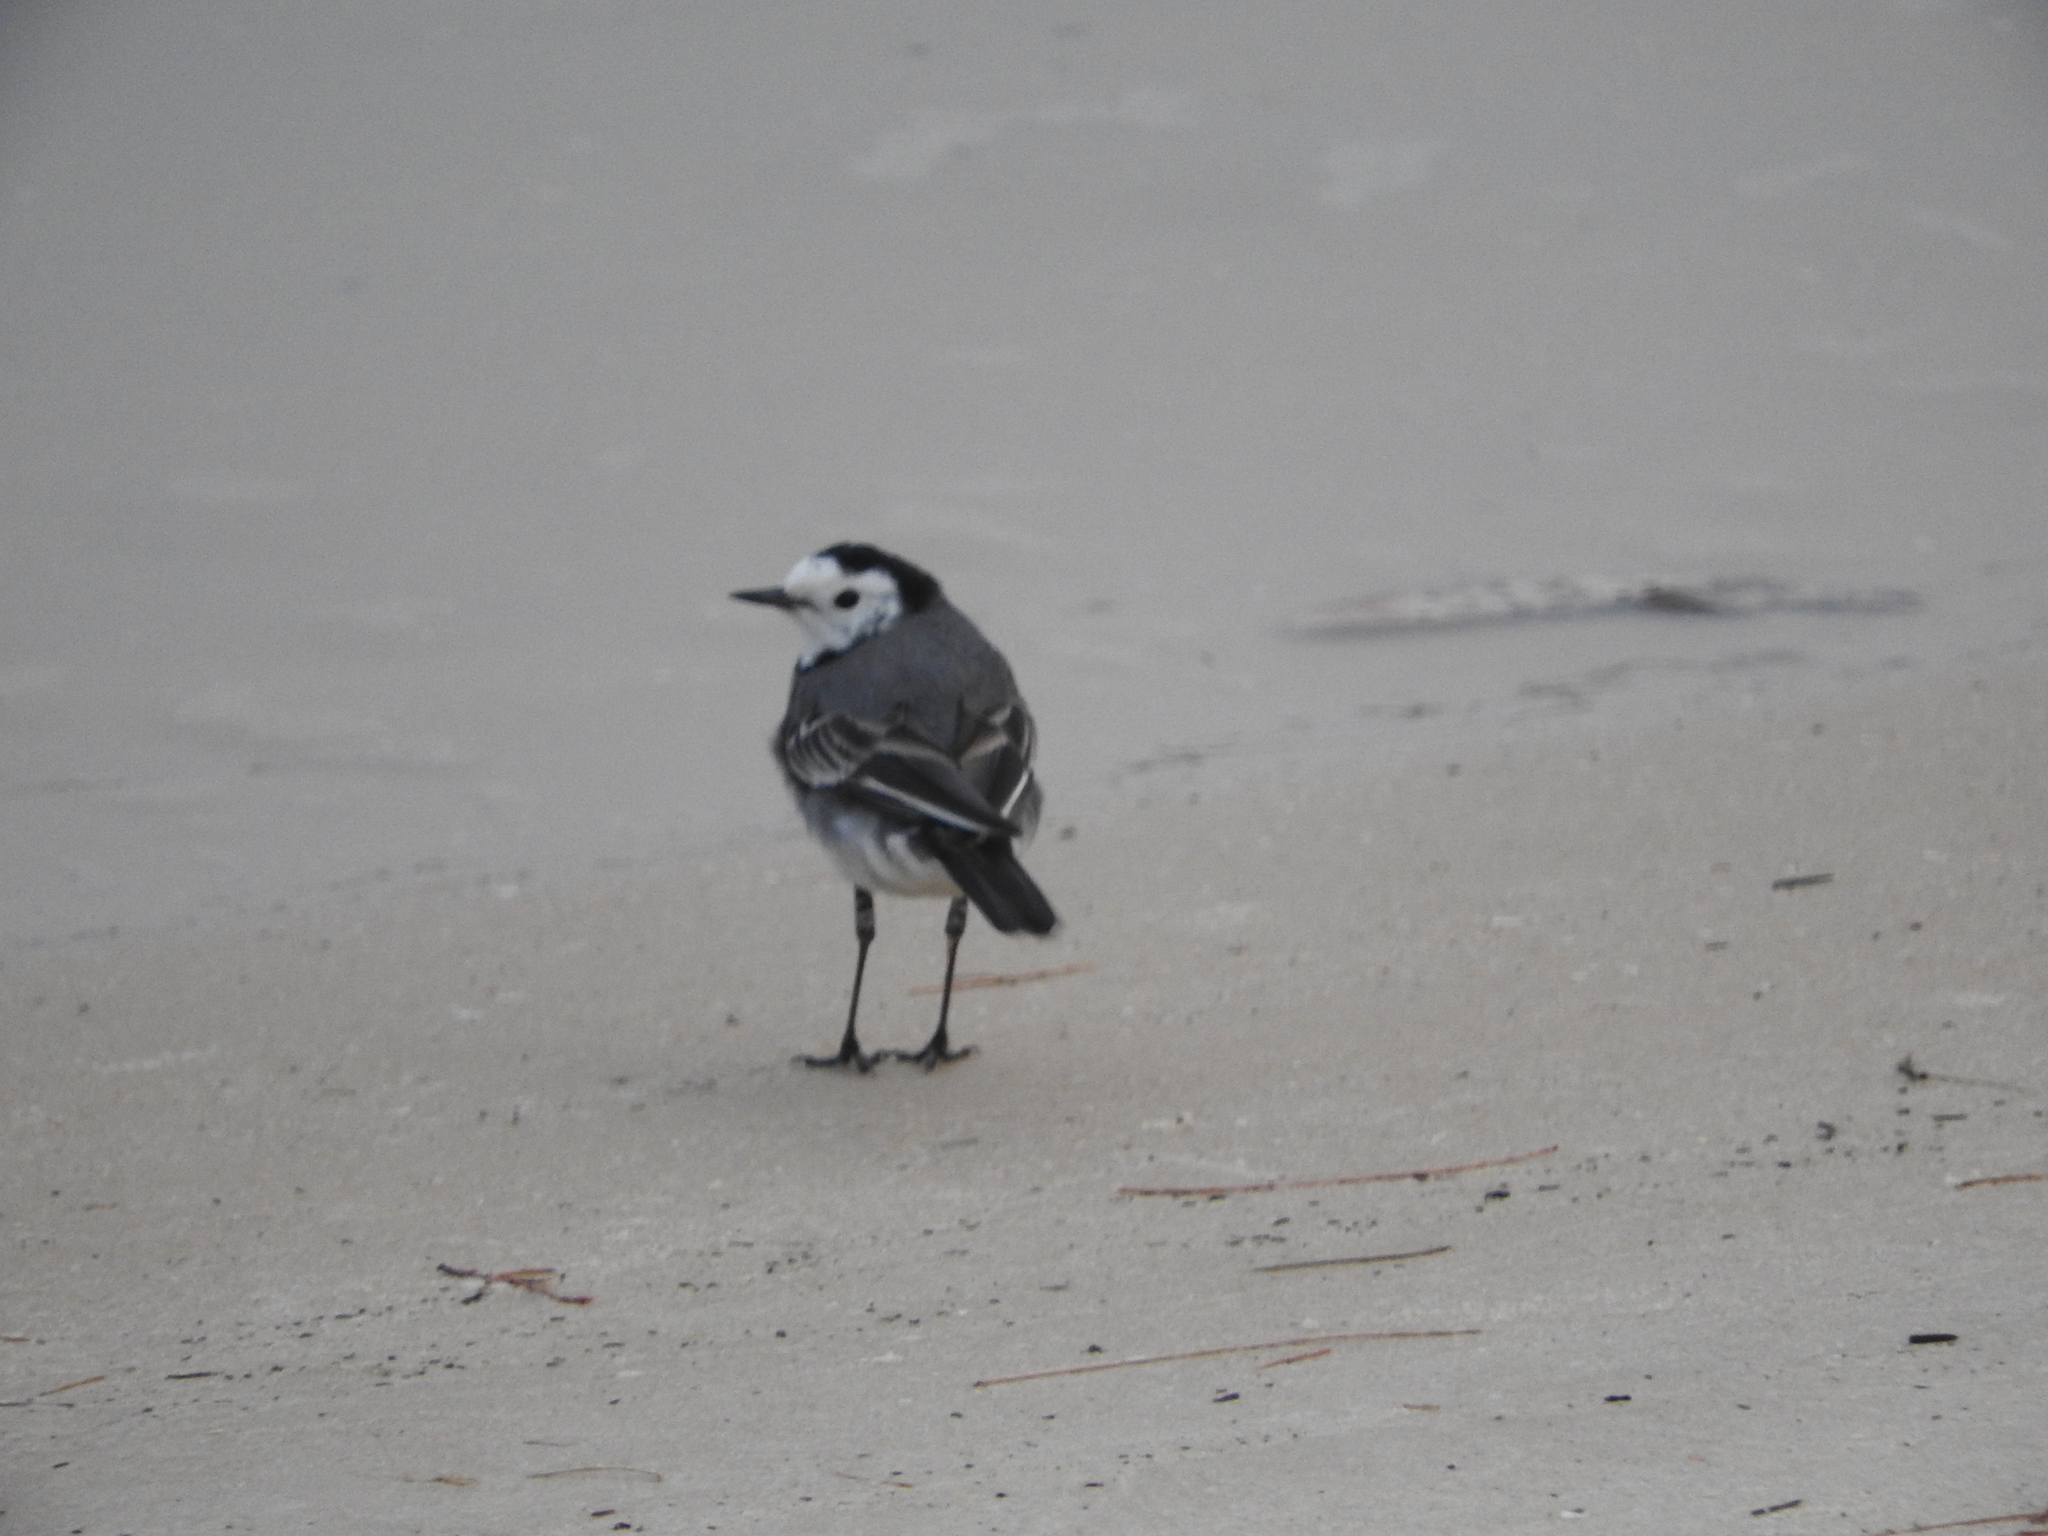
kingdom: Animalia
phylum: Chordata
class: Aves
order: Passeriformes
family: Motacillidae
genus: Motacilla
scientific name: Motacilla alba
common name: White wagtail
